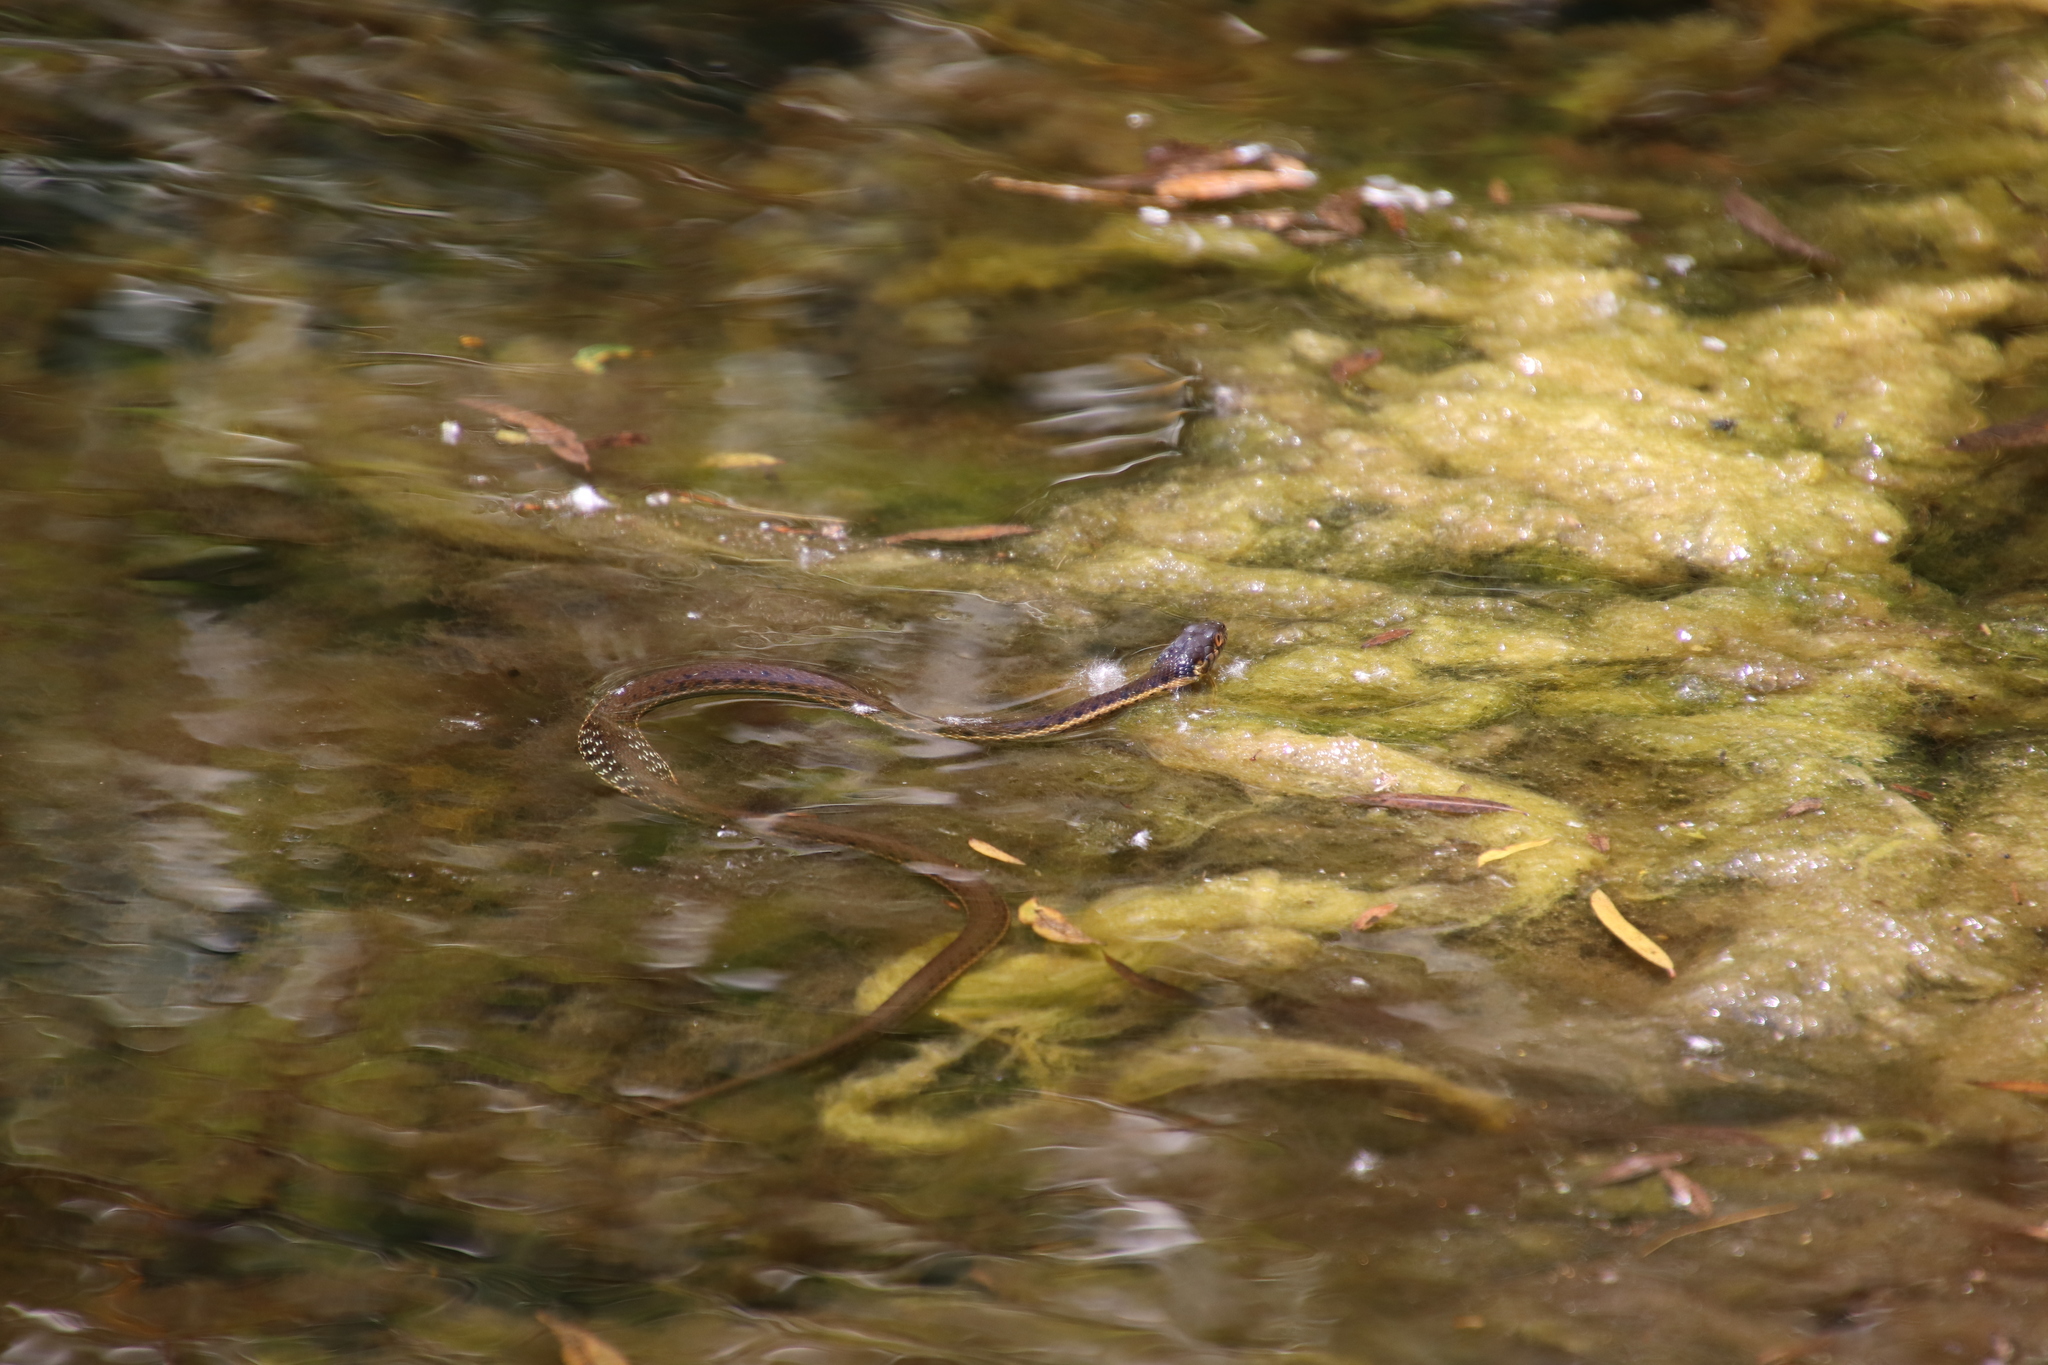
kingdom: Animalia
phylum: Chordata
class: Squamata
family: Colubridae
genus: Thamnophis
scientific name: Thamnophis hammondii
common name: Two-striped garter snake
